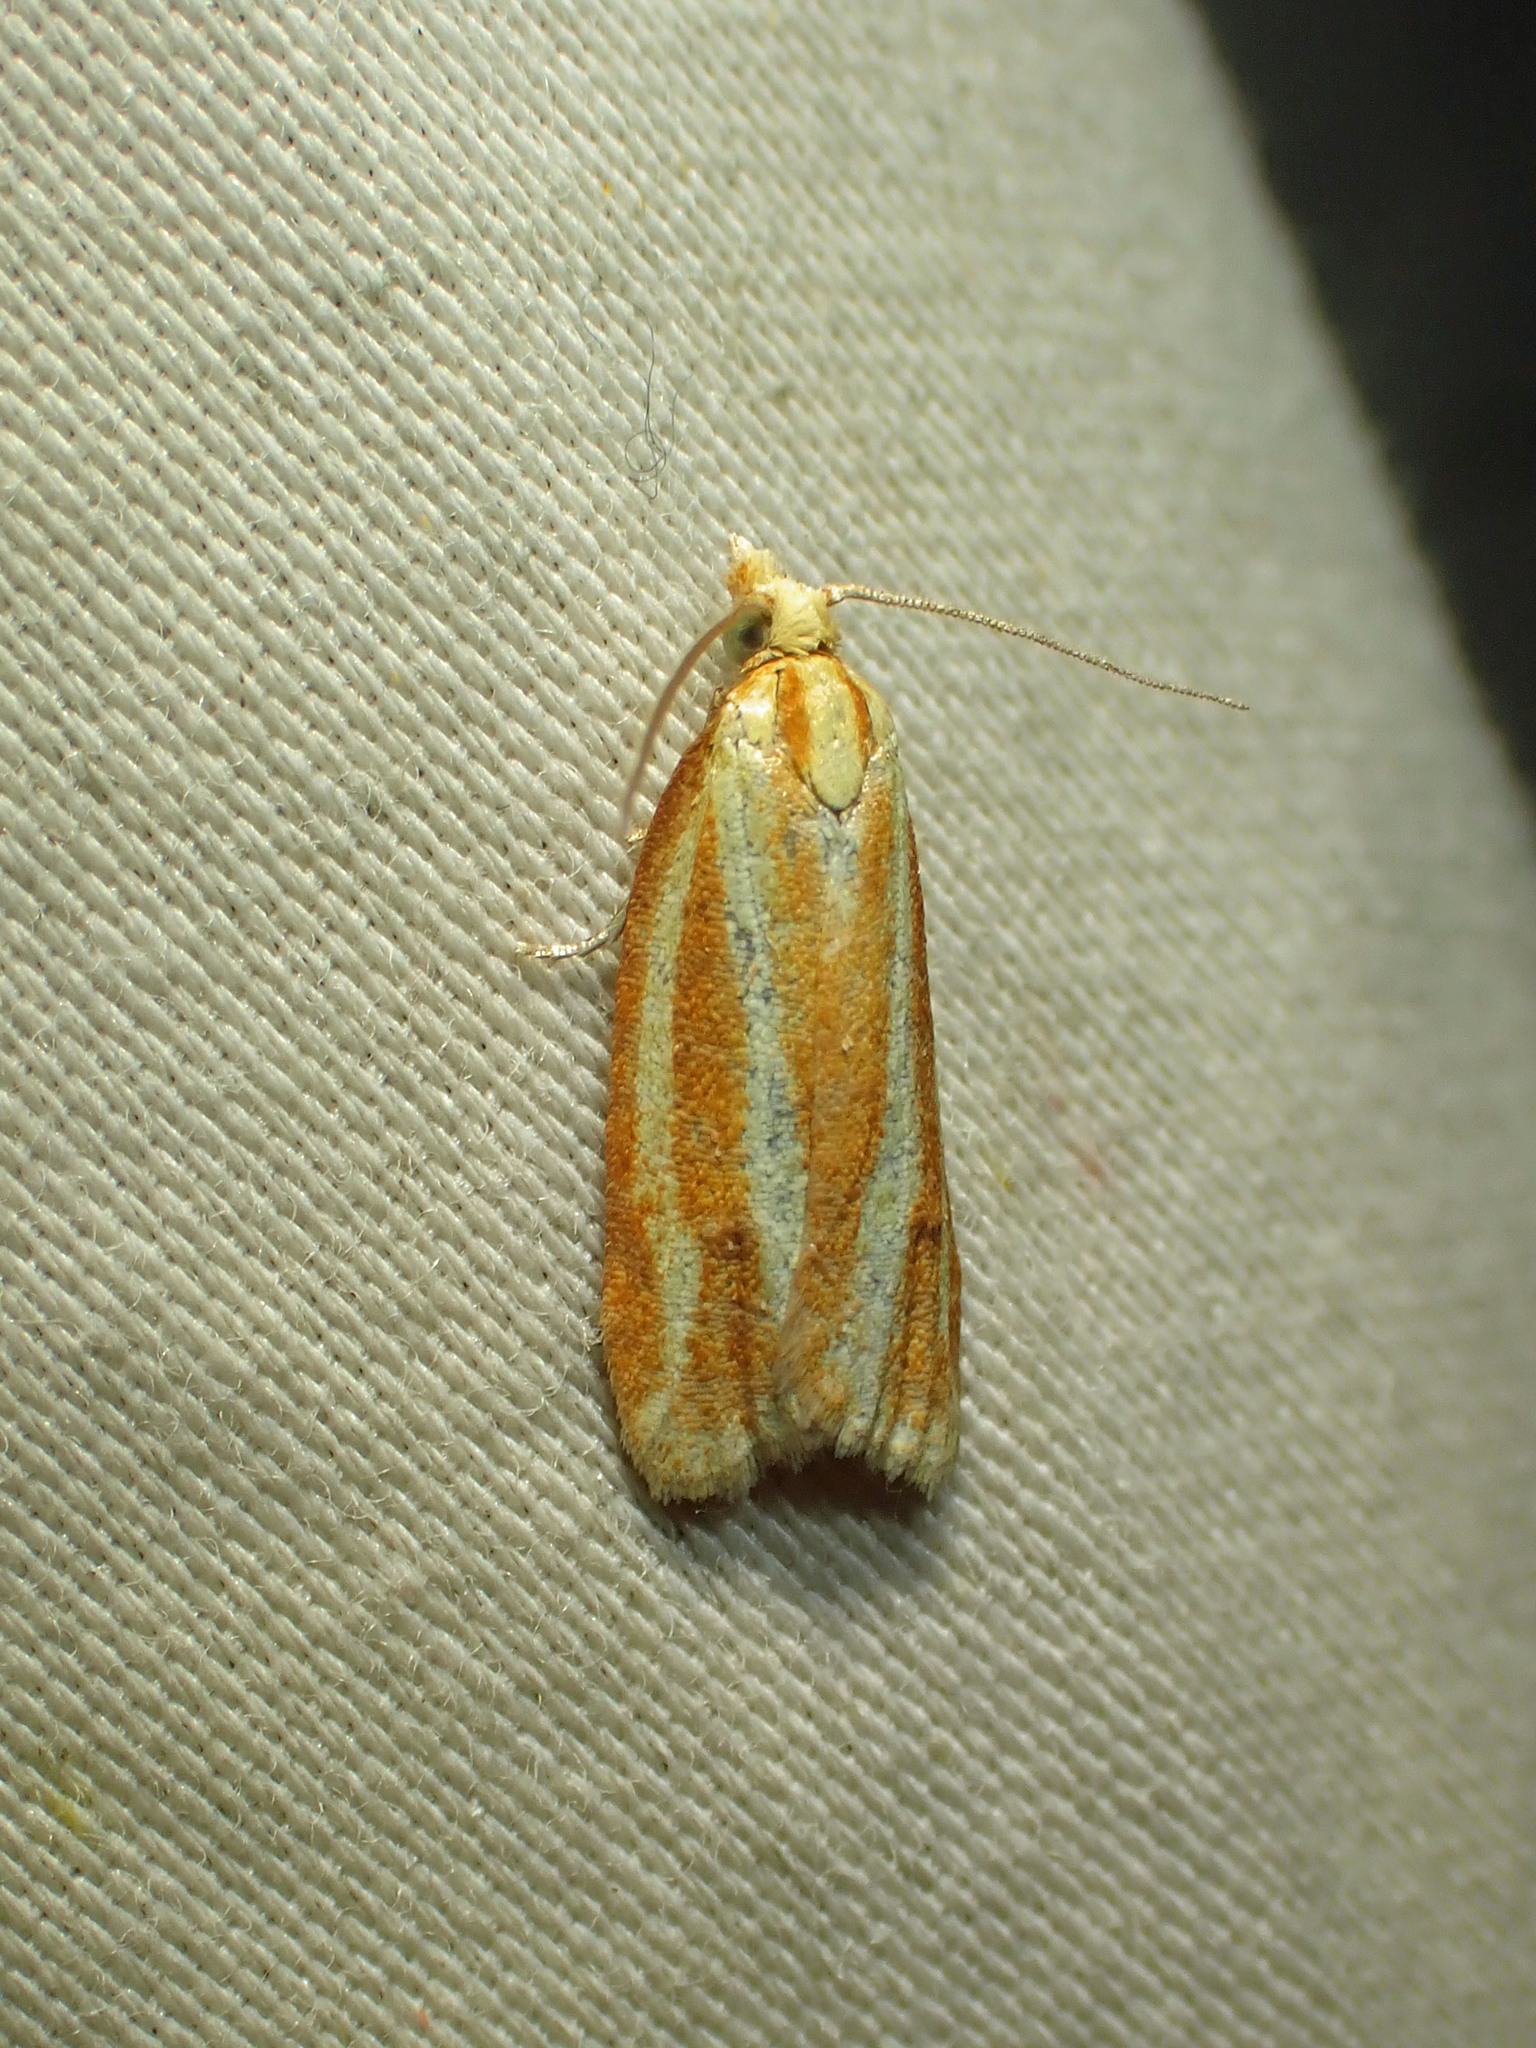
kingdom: Animalia
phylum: Arthropoda
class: Insecta
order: Lepidoptera
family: Tortricidae
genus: Sparganothis
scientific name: Sparganothis tristriata
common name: Three-streaked sparganothis moth
